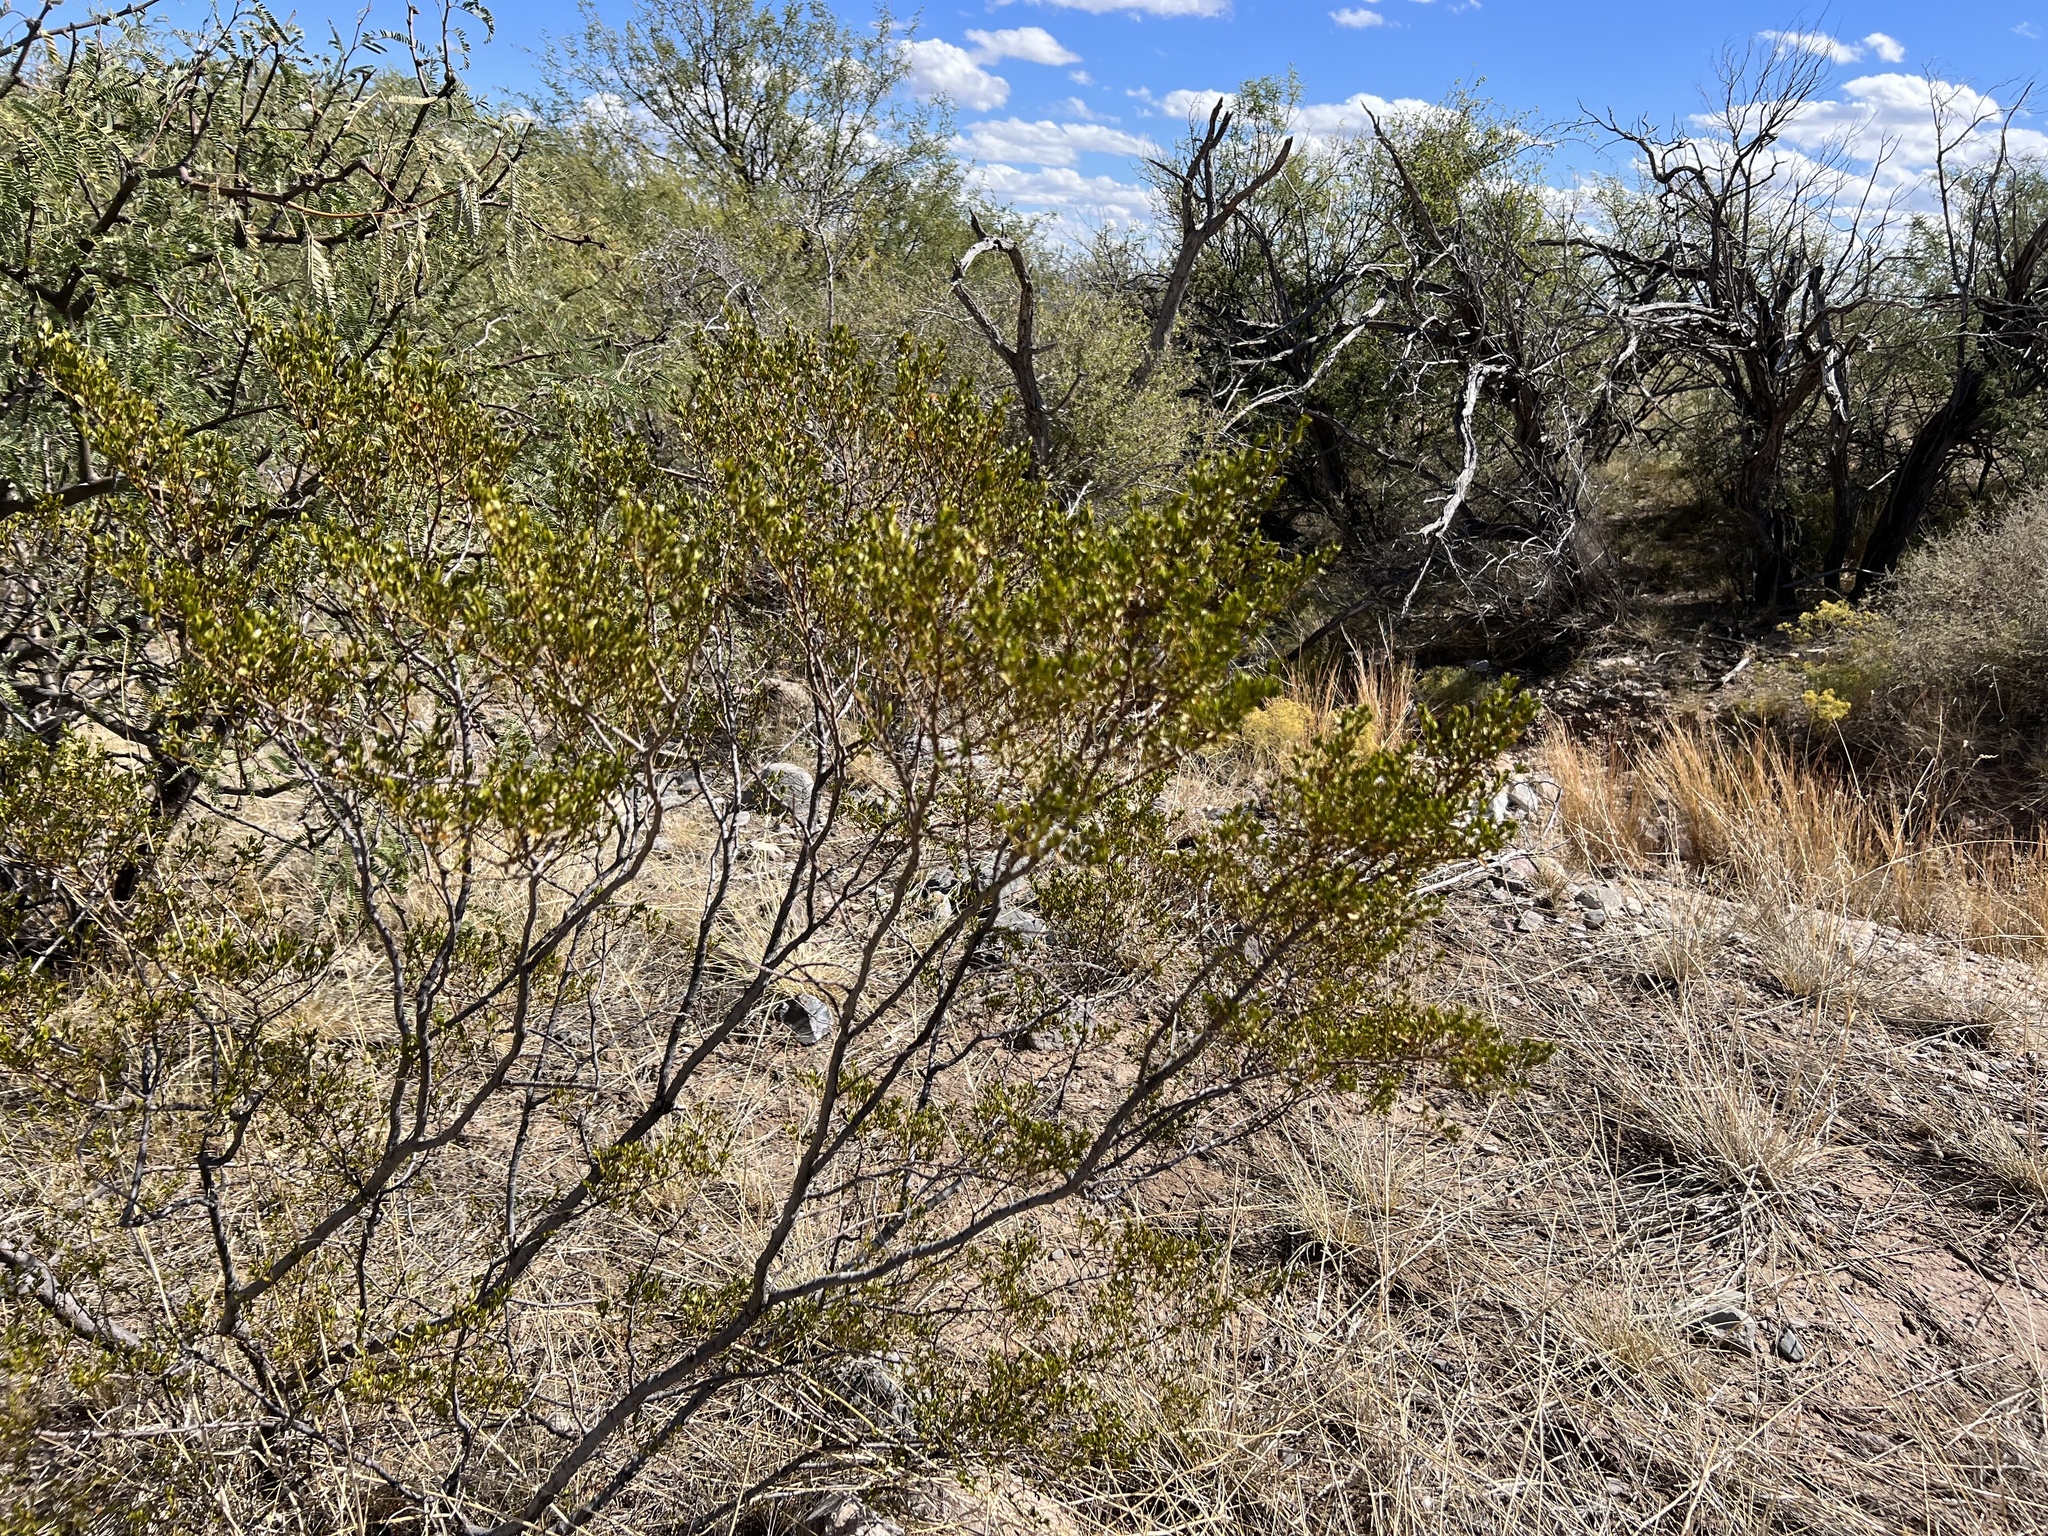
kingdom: Plantae
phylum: Tracheophyta
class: Magnoliopsida
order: Zygophyllales
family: Zygophyllaceae
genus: Larrea
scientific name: Larrea tridentata
